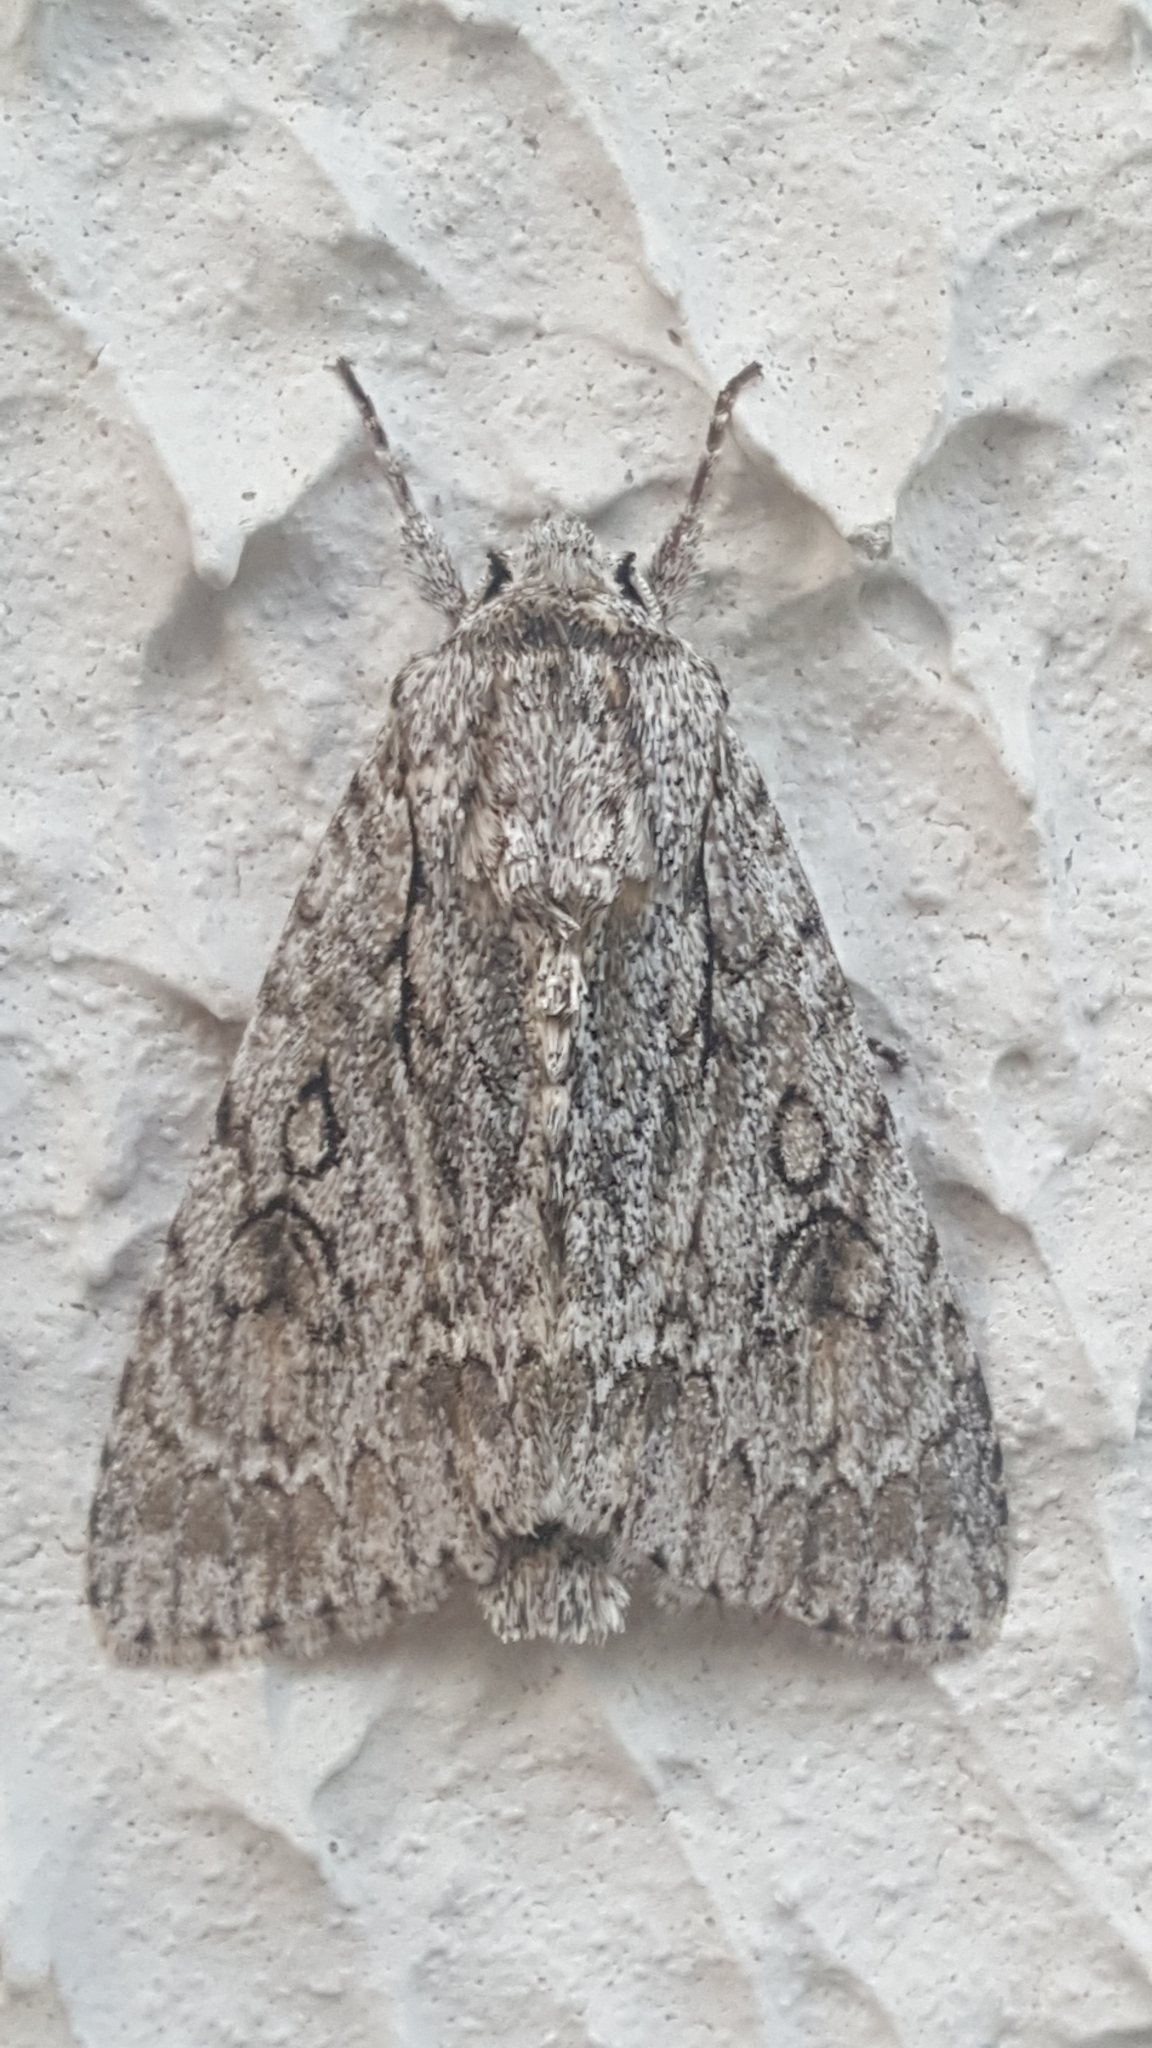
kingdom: Animalia
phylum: Arthropoda
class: Insecta
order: Lepidoptera
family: Noctuidae
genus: Acronicta
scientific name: Acronicta aceris
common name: Sycamore
